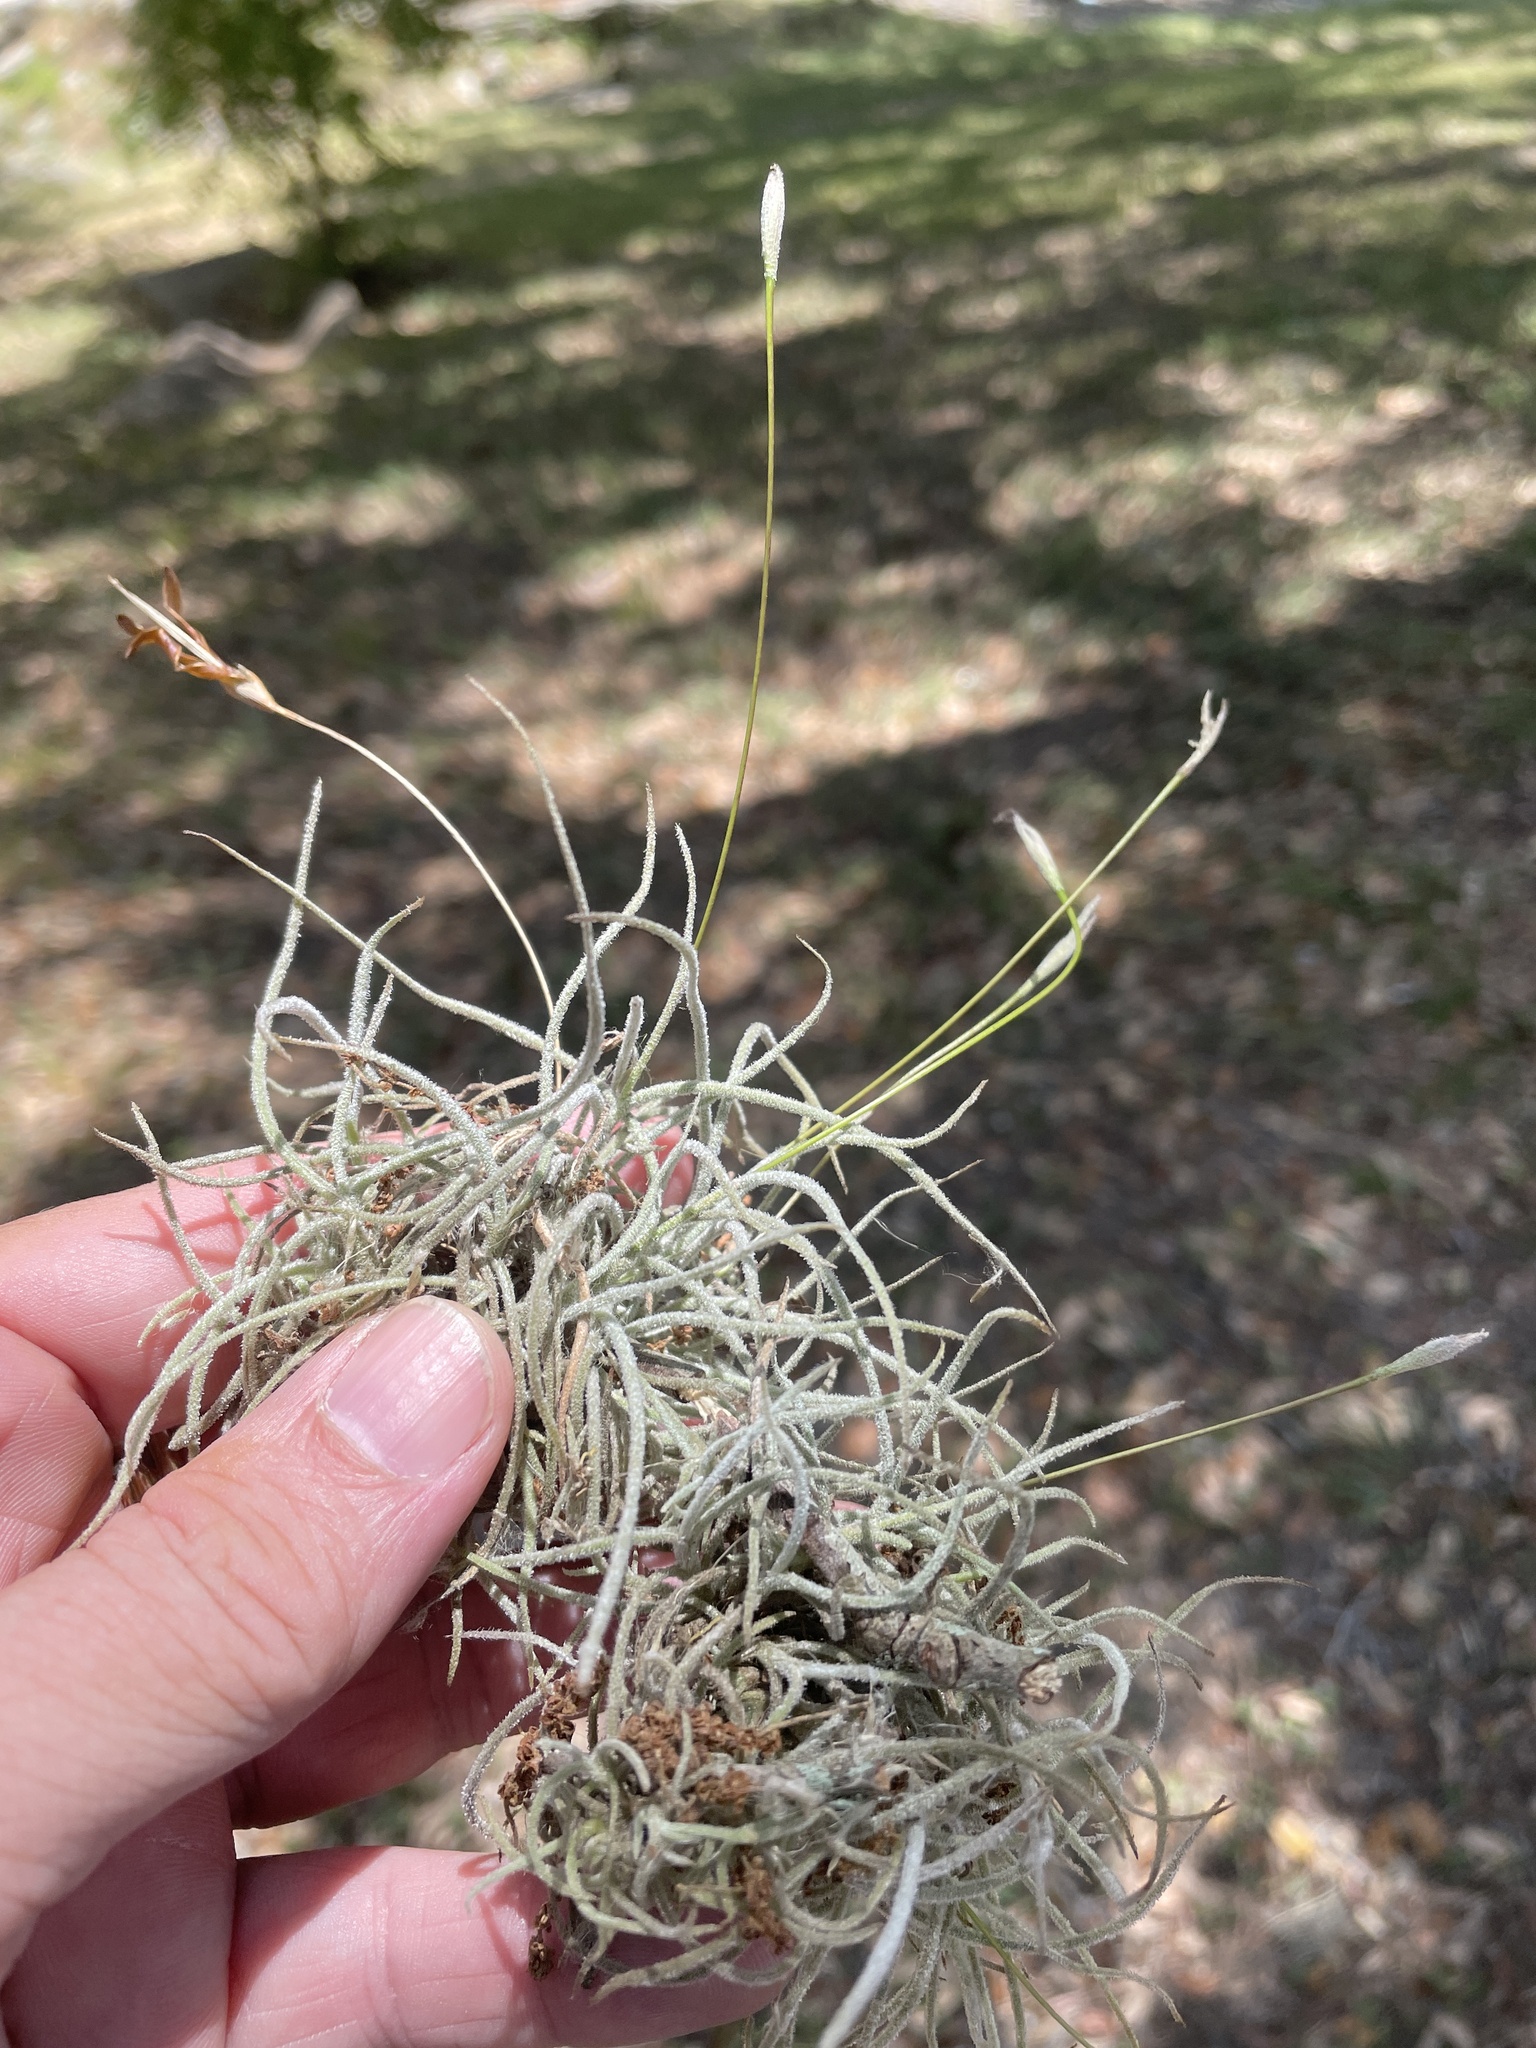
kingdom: Plantae
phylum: Tracheophyta
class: Liliopsida
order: Poales
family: Bromeliaceae
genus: Tillandsia
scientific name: Tillandsia recurvata
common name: Small ballmoss
